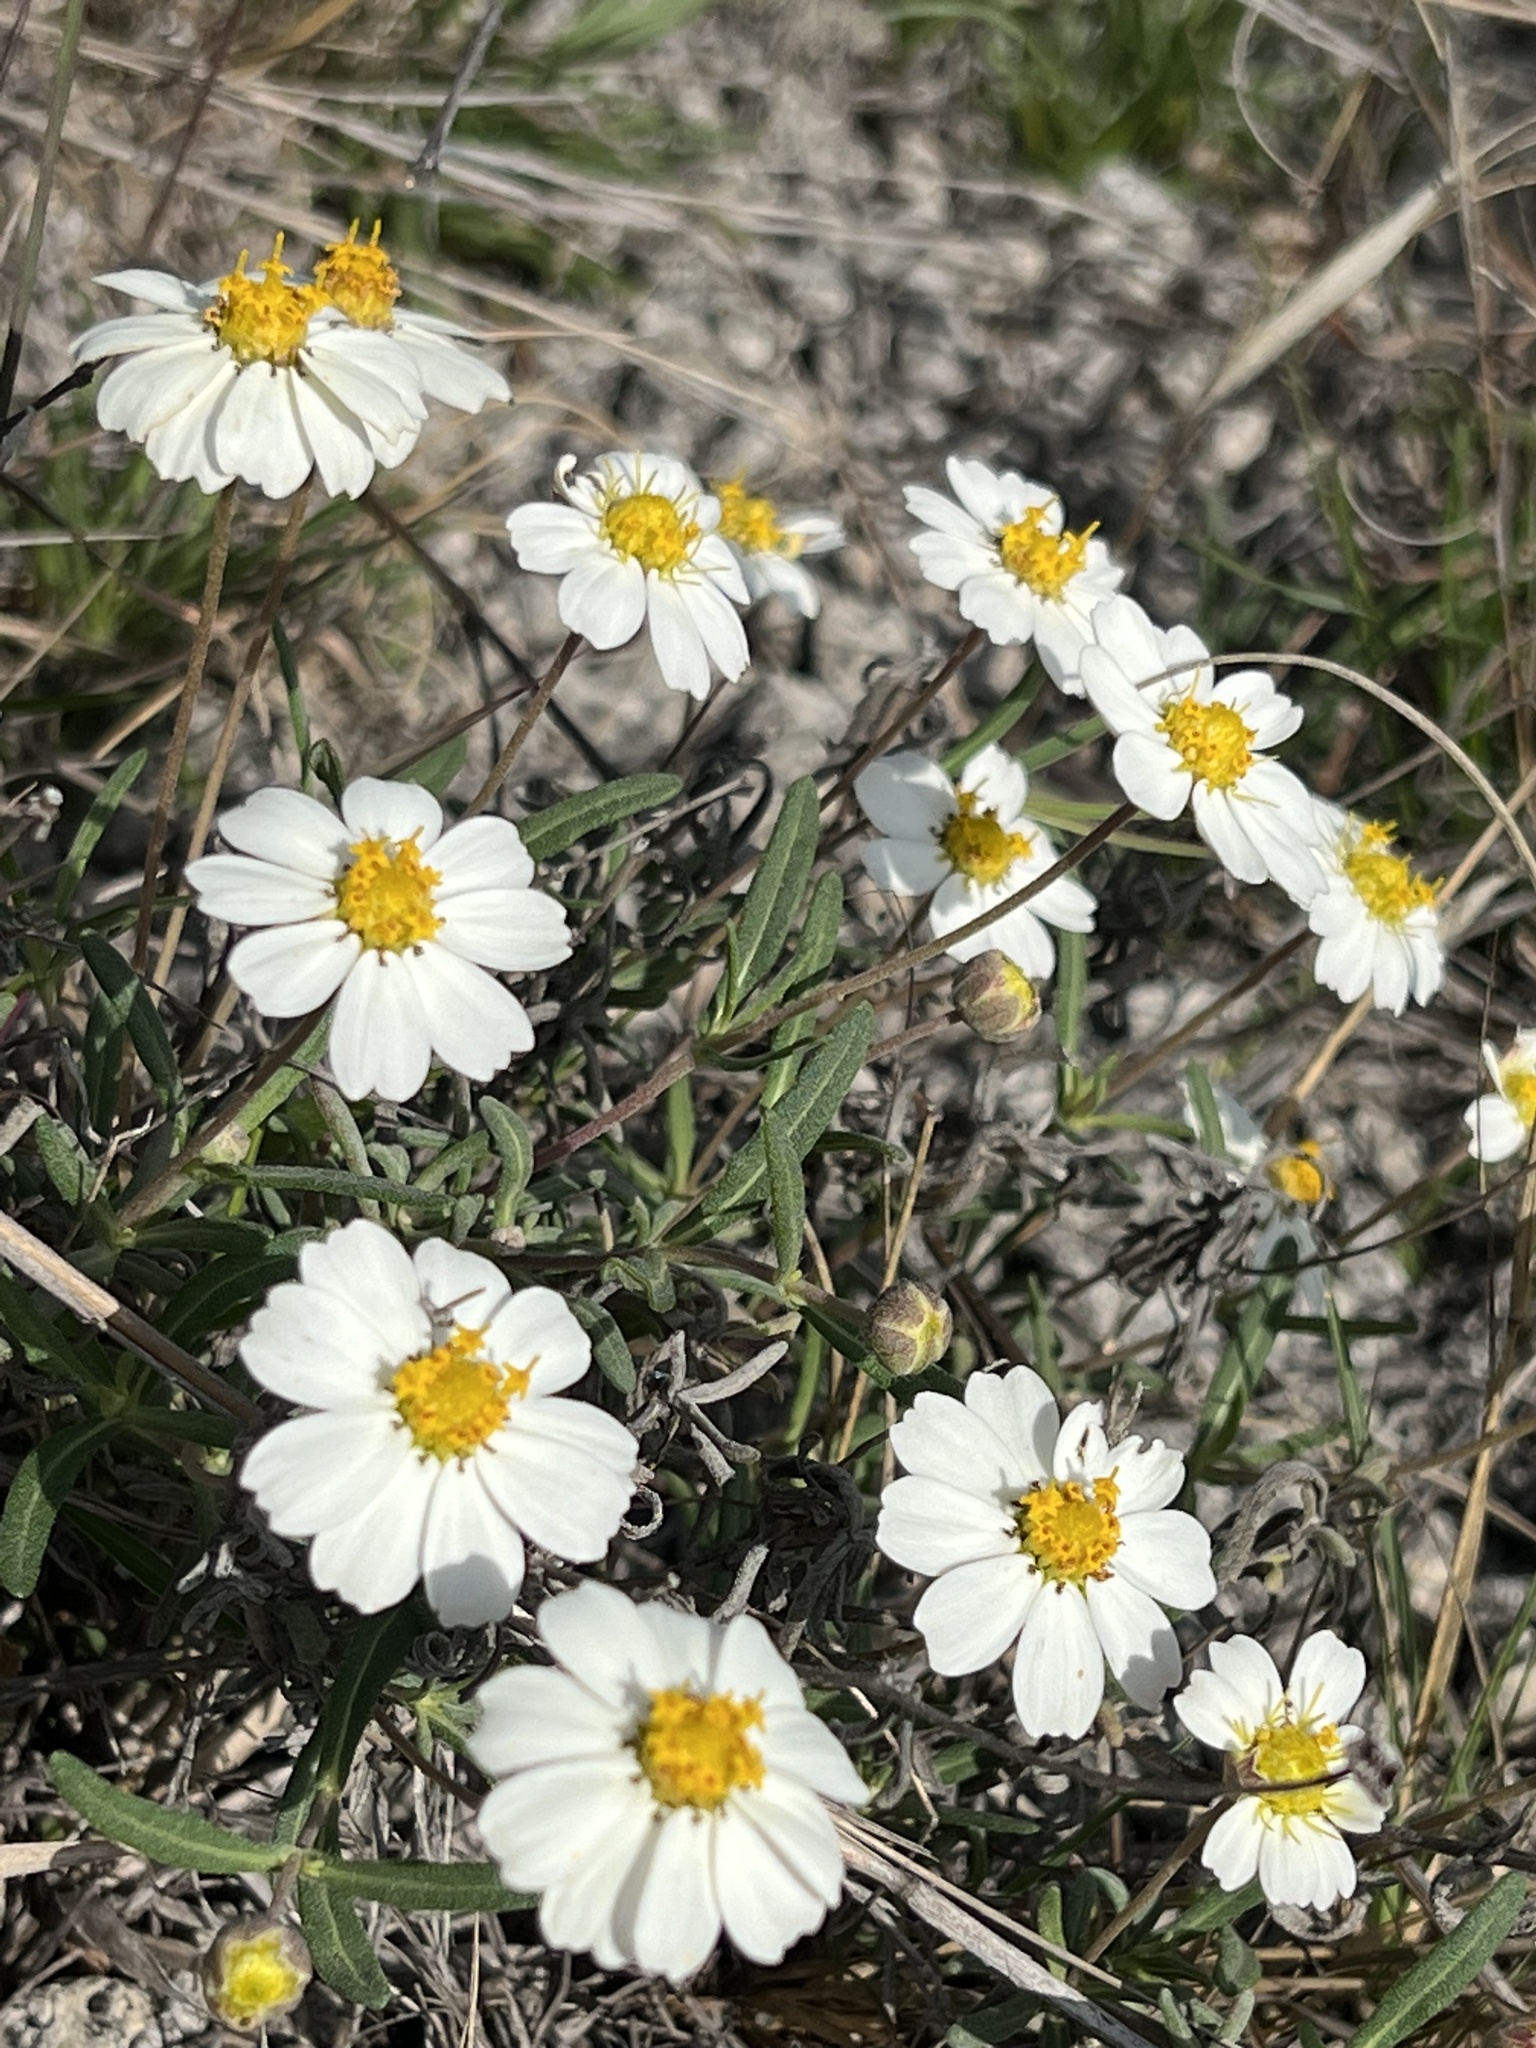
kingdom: Plantae
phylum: Tracheophyta
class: Magnoliopsida
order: Asterales
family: Asteraceae
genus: Melampodium
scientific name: Melampodium leucanthum
